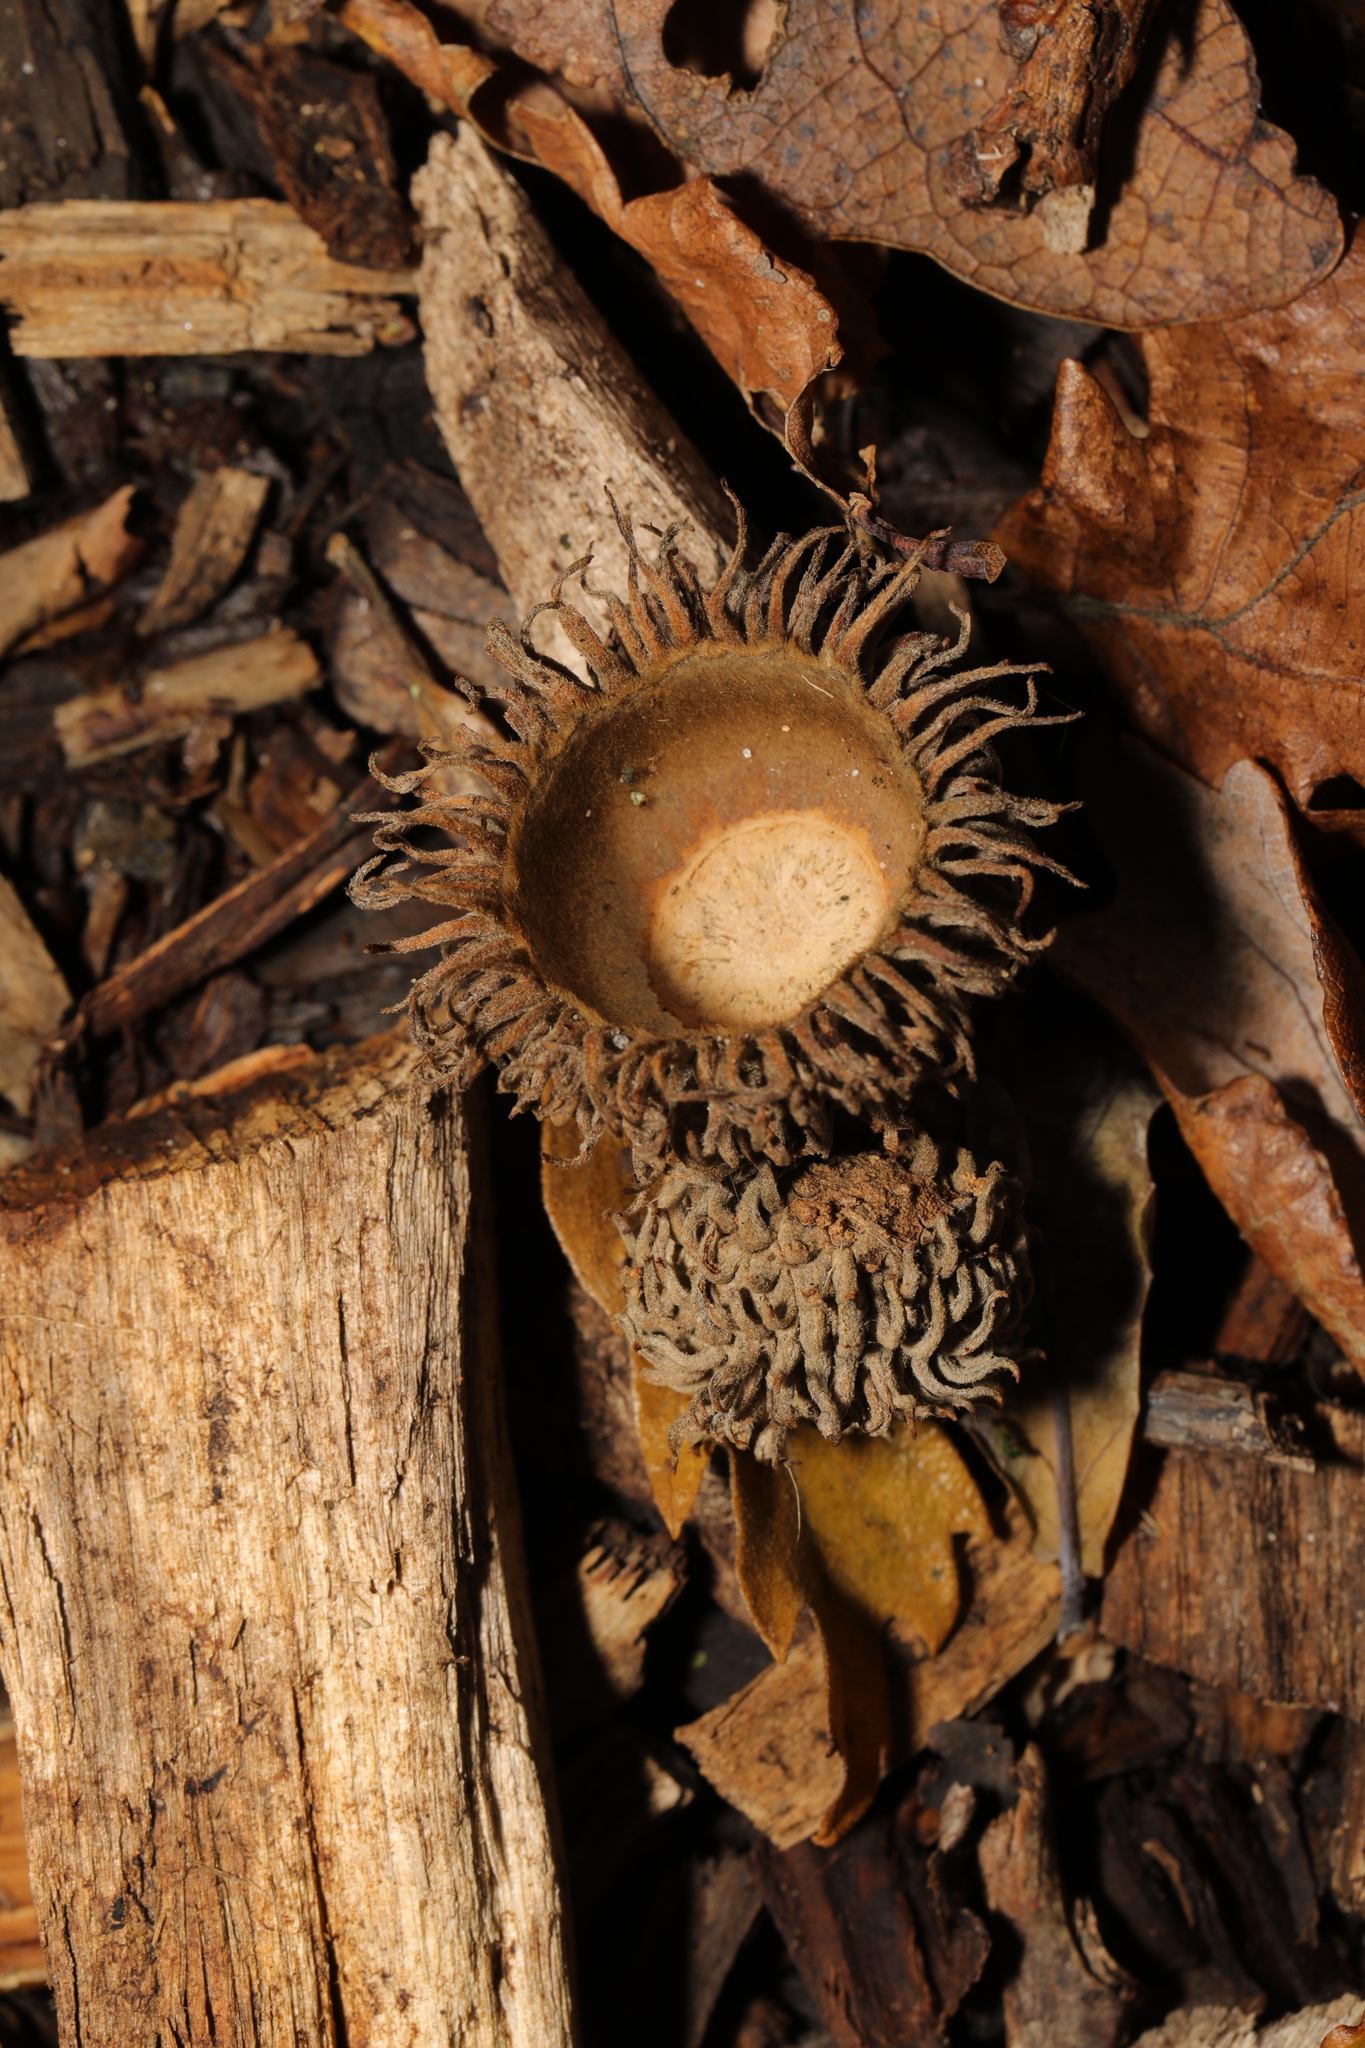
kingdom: Plantae
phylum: Tracheophyta
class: Magnoliopsida
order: Fagales
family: Fagaceae
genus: Quercus
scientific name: Quercus cerris
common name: Turkey oak
